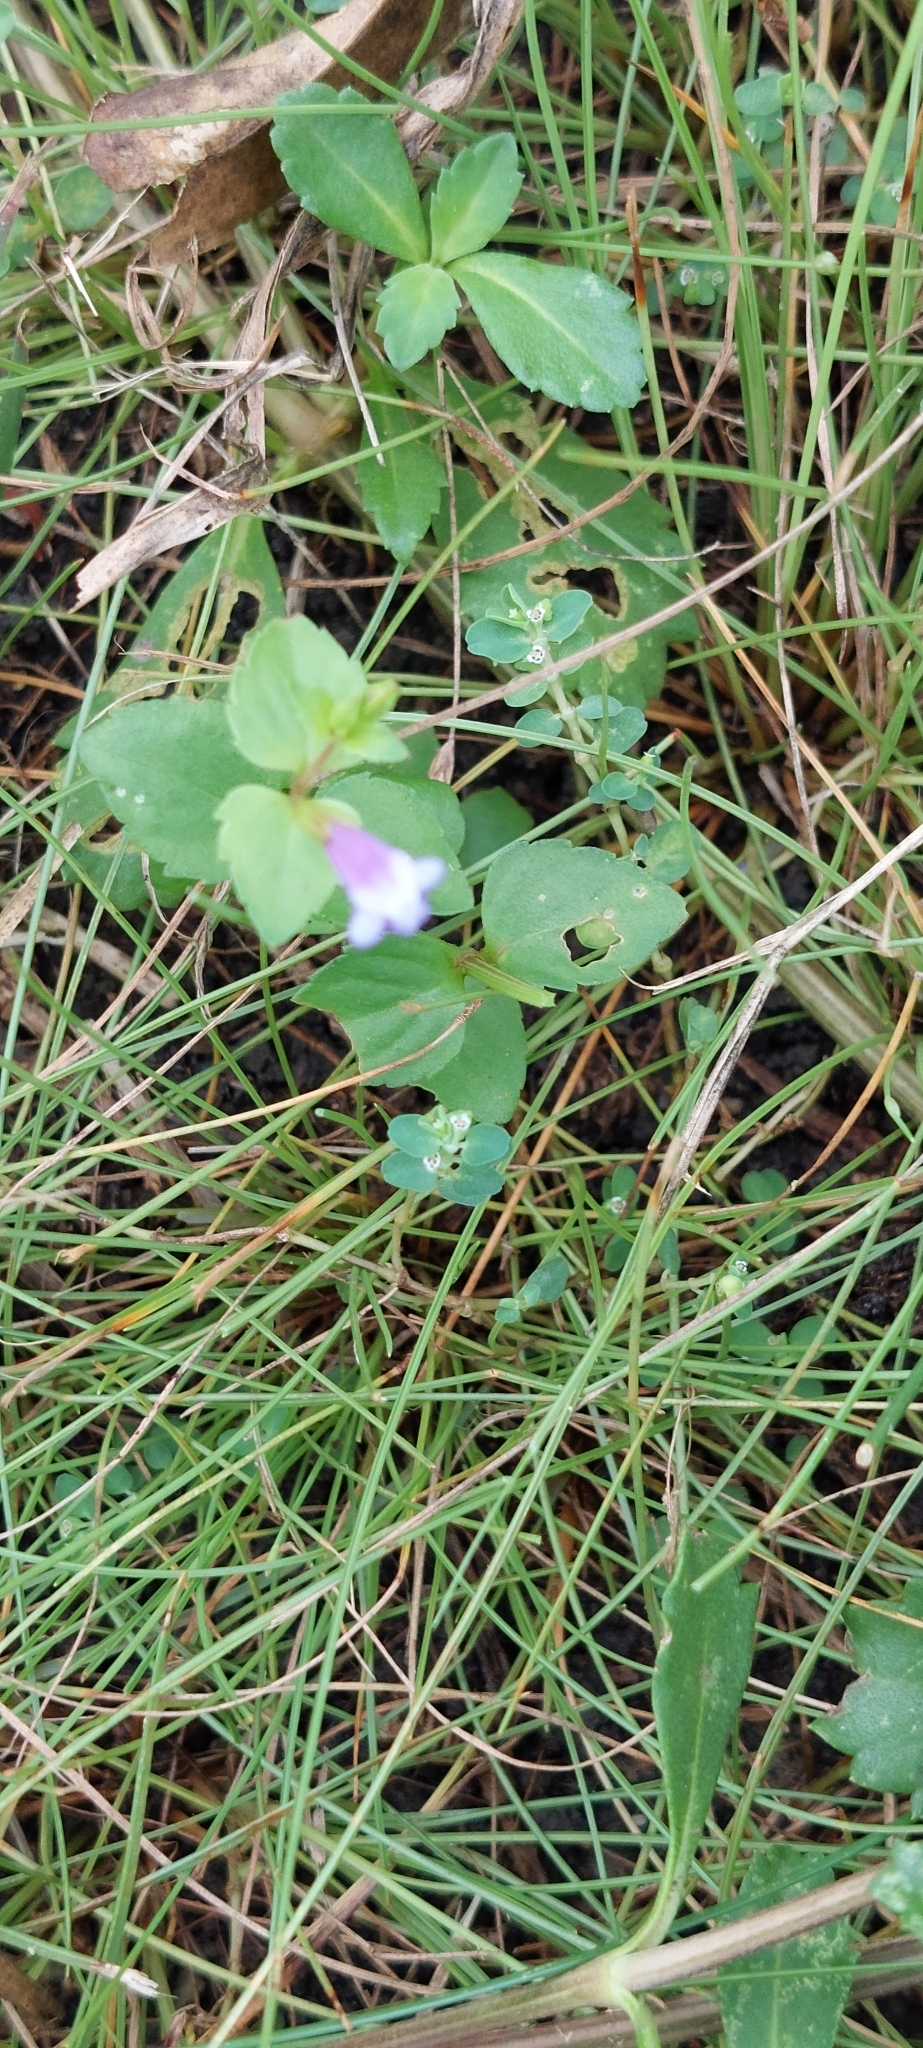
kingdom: Plantae
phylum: Tracheophyta
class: Magnoliopsida
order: Lamiales
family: Linderniaceae
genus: Torenia
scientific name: Torenia anagallis
